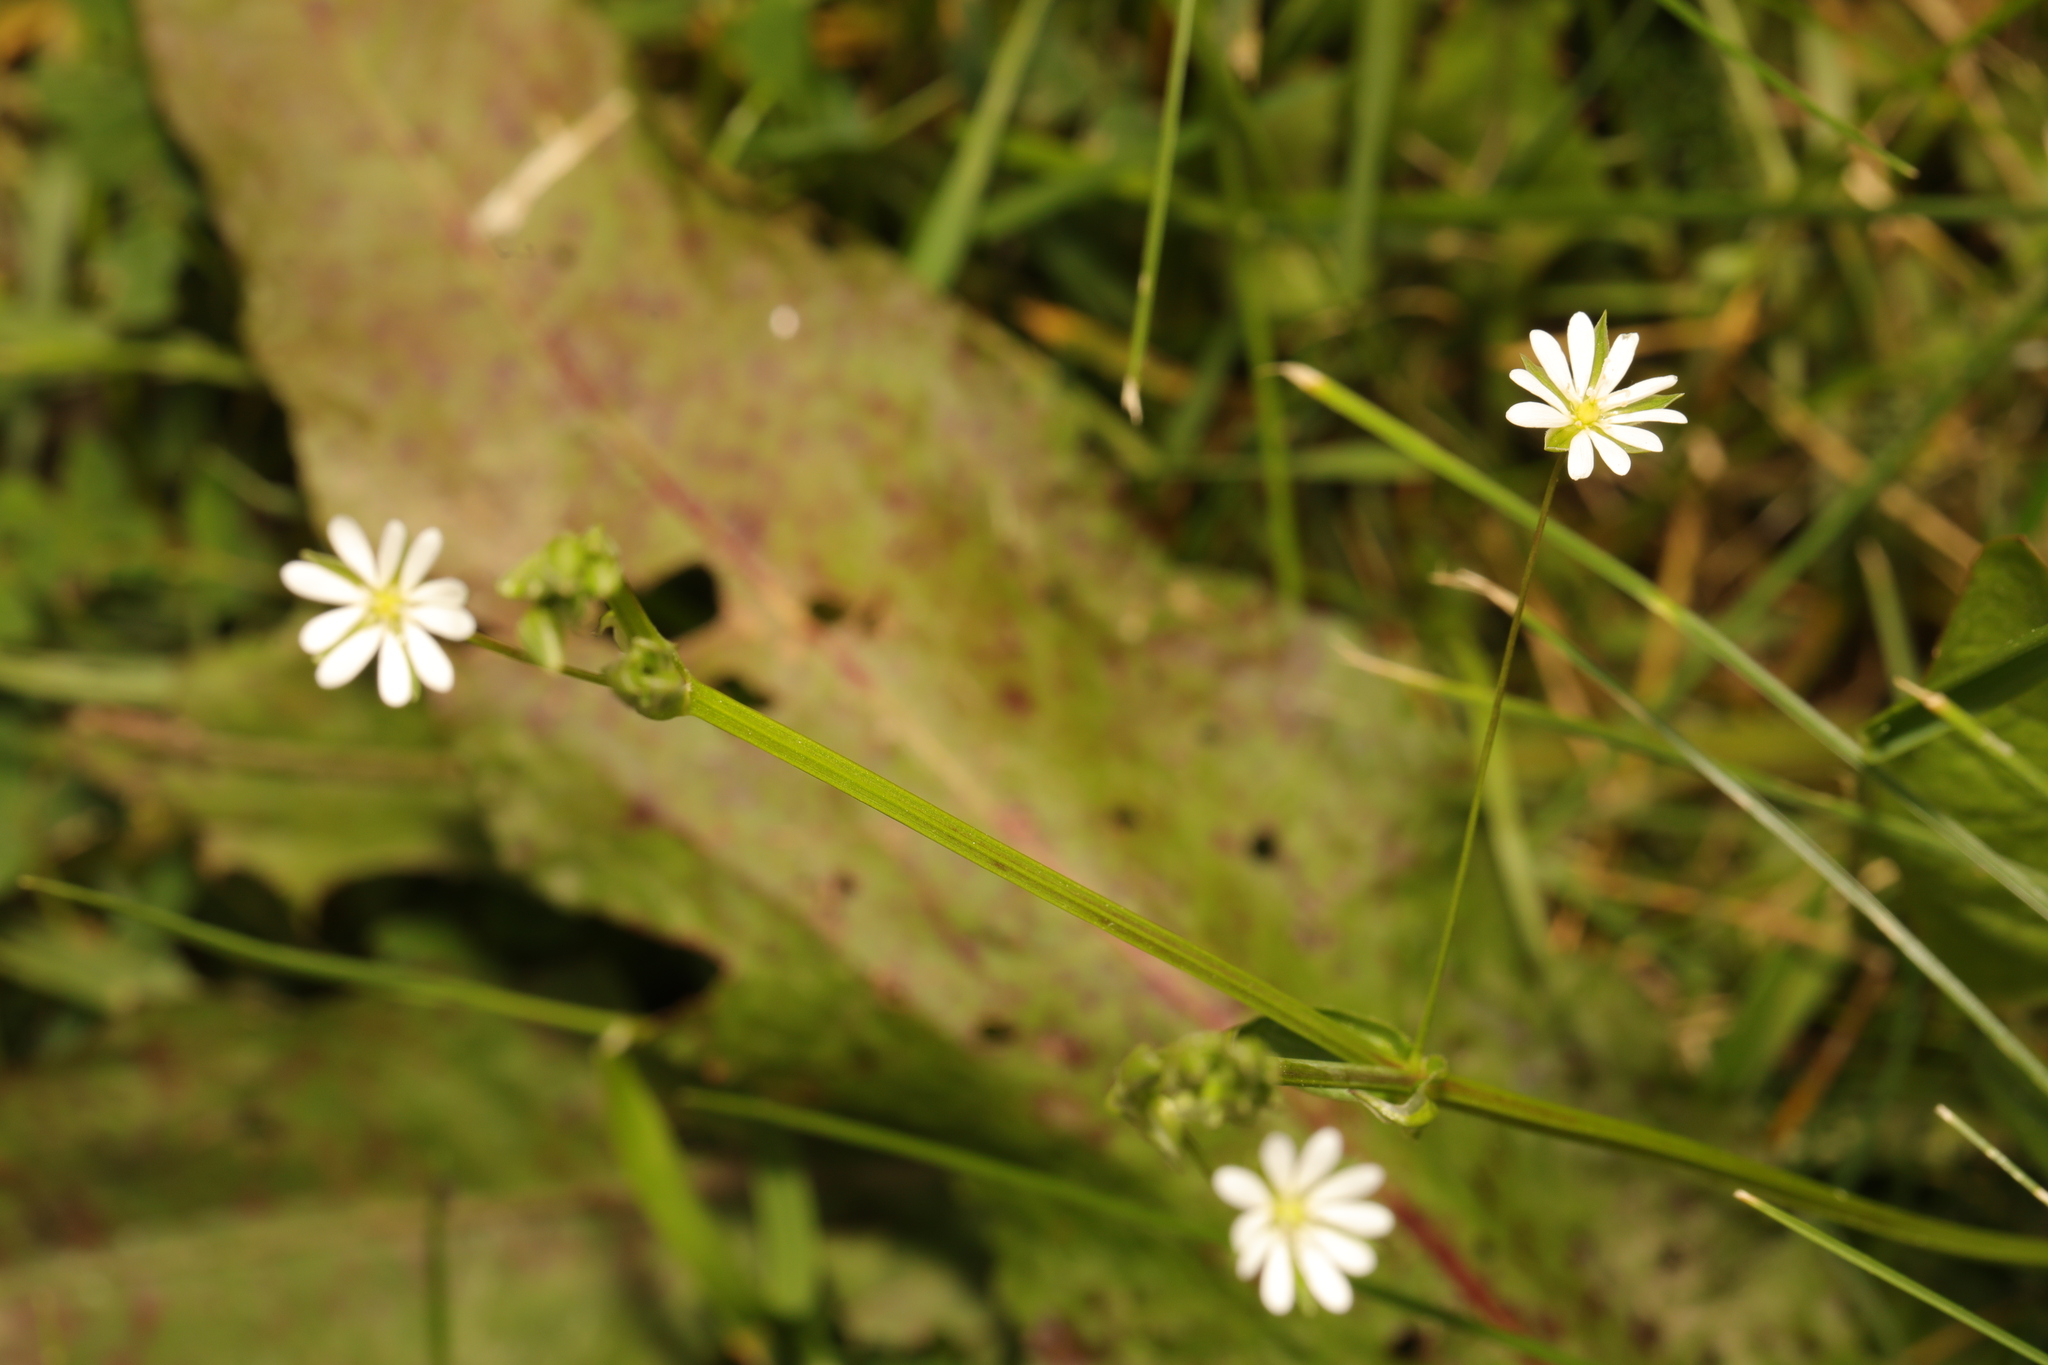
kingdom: Plantae
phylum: Tracheophyta
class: Magnoliopsida
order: Caryophyllales
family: Caryophyllaceae
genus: Stellaria
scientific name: Stellaria graminea
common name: Grass-like starwort
